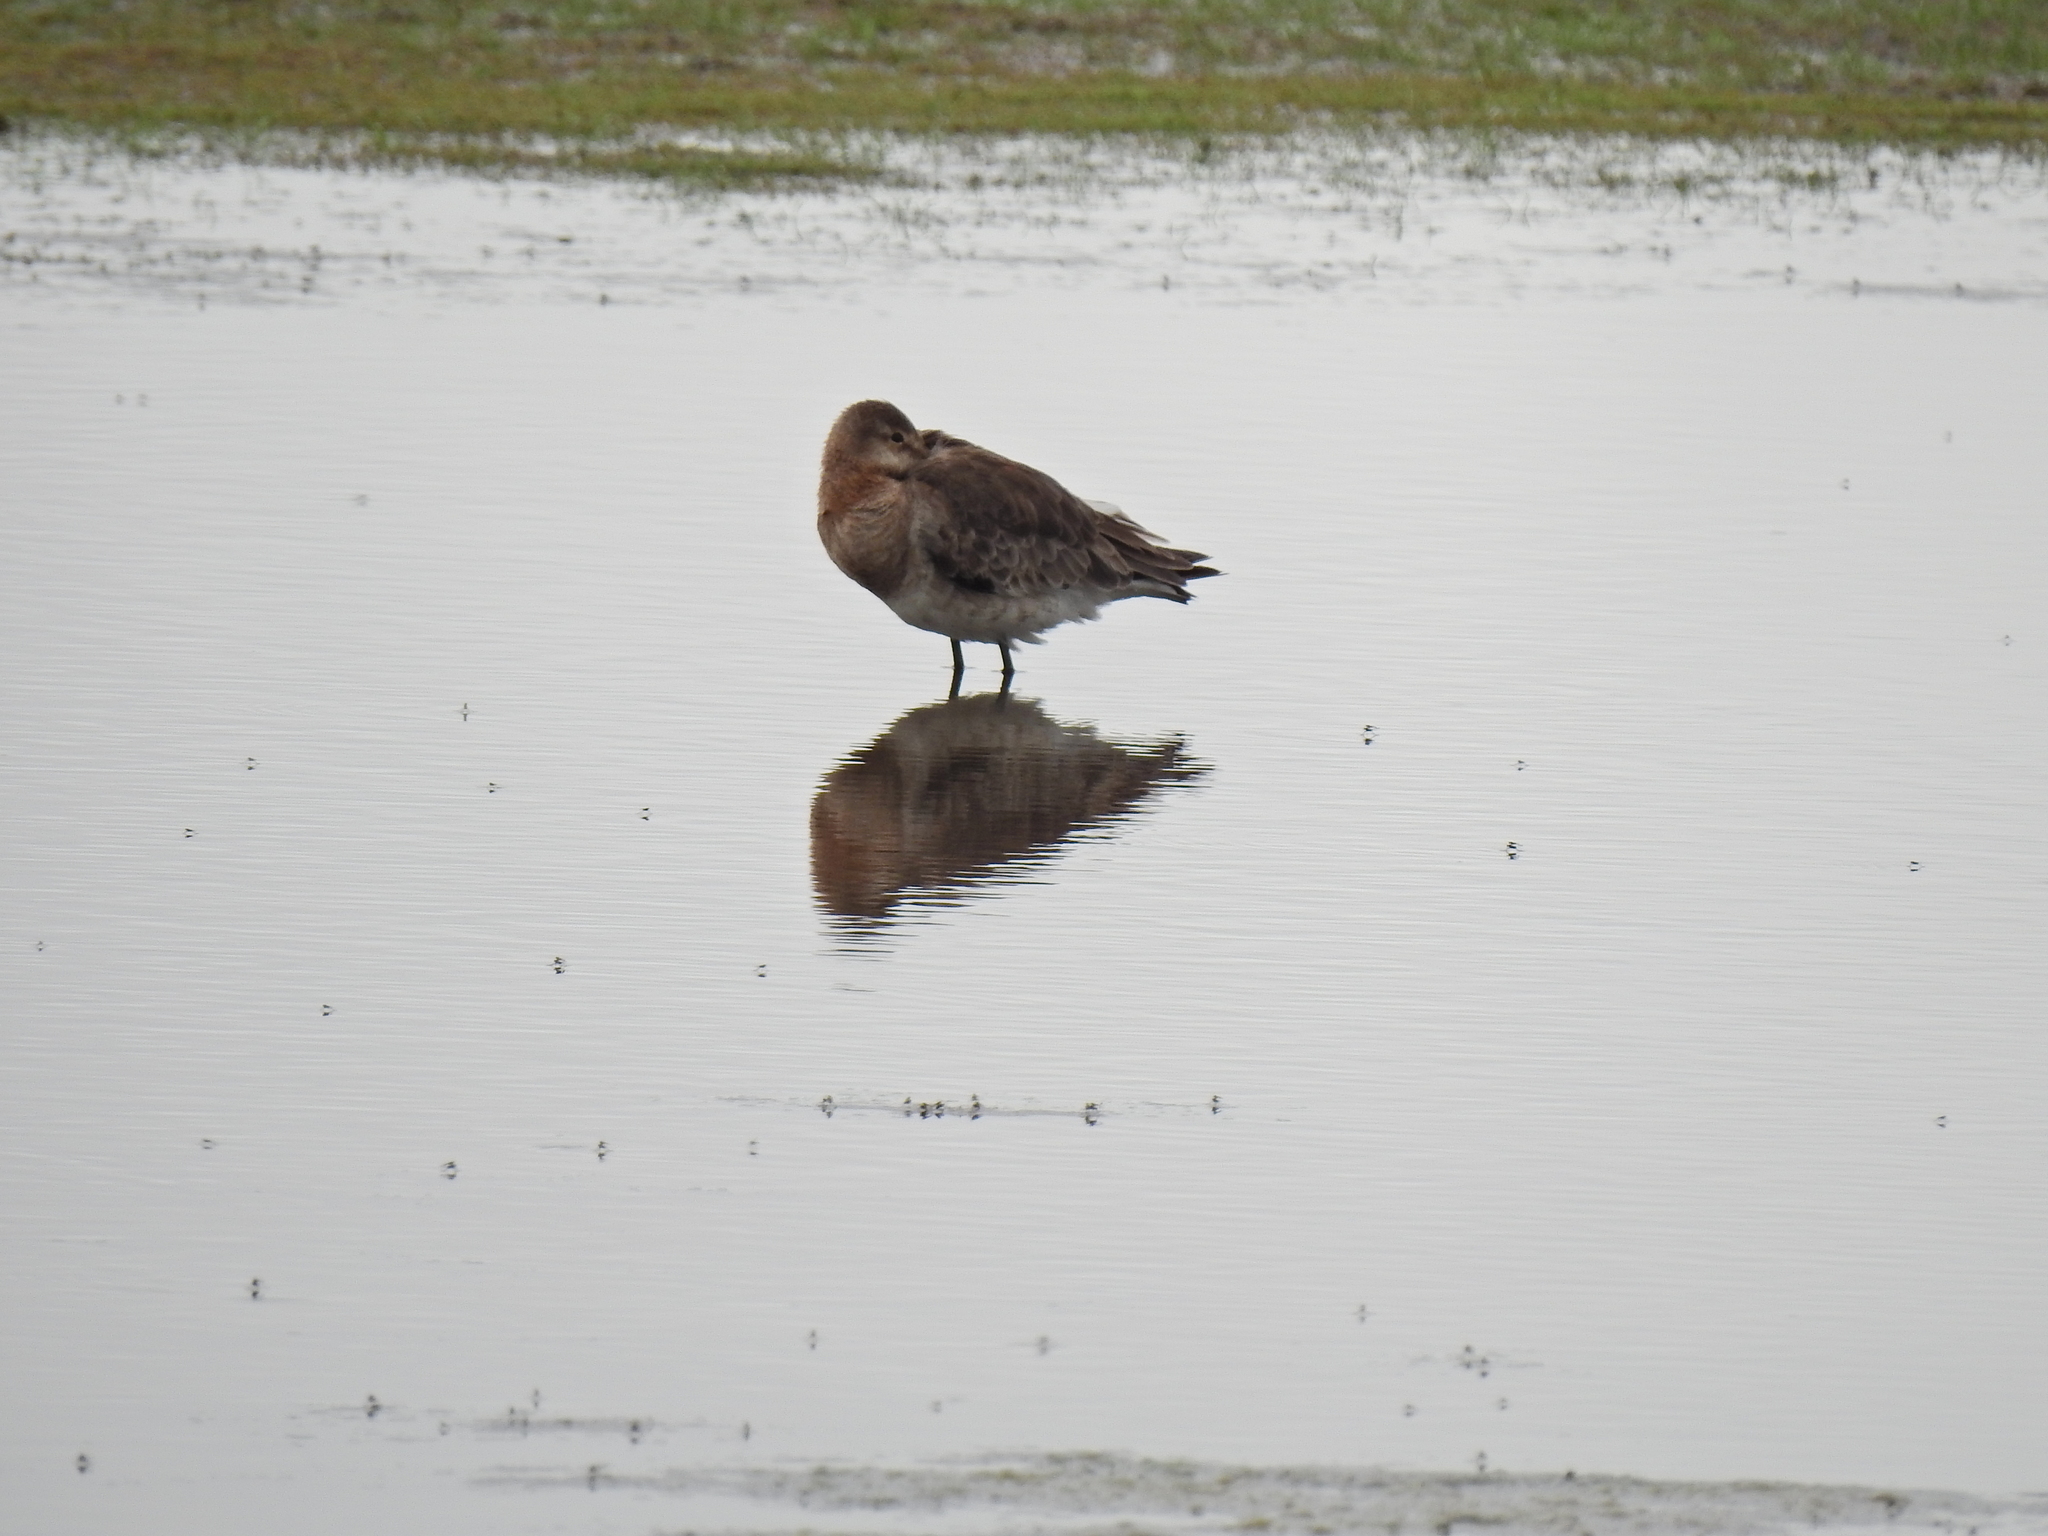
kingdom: Animalia
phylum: Chordata
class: Aves
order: Charadriiformes
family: Scolopacidae
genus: Limosa
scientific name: Limosa limosa
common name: Black-tailed godwit
